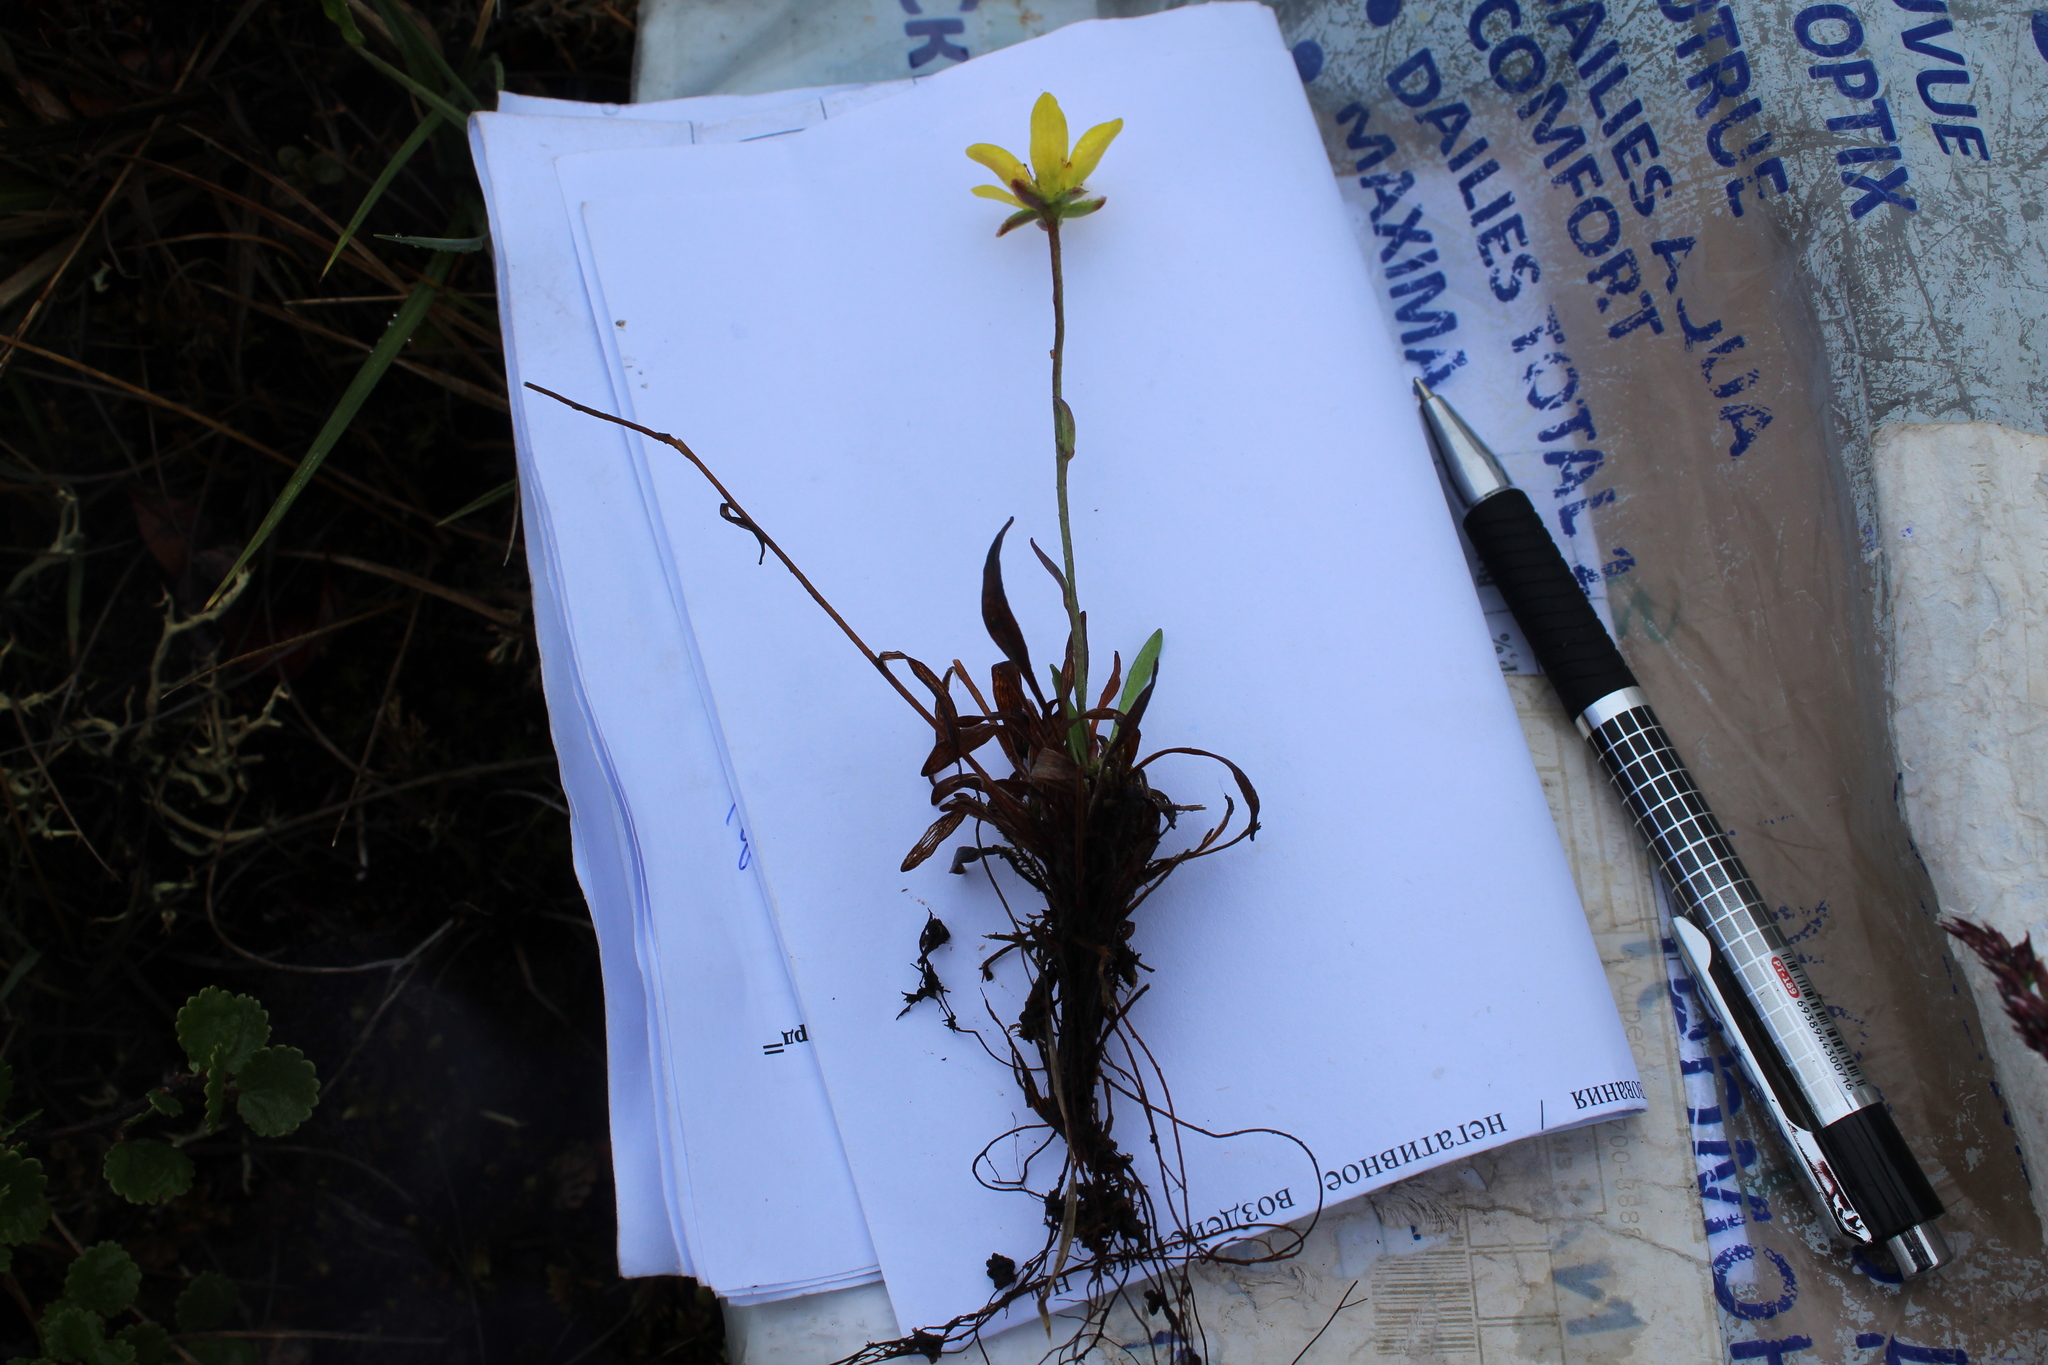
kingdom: Plantae
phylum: Tracheophyta
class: Magnoliopsida
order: Saxifragales
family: Saxifragaceae
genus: Saxifraga
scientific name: Saxifraga hirculus
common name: Yellow marsh saxifrage
